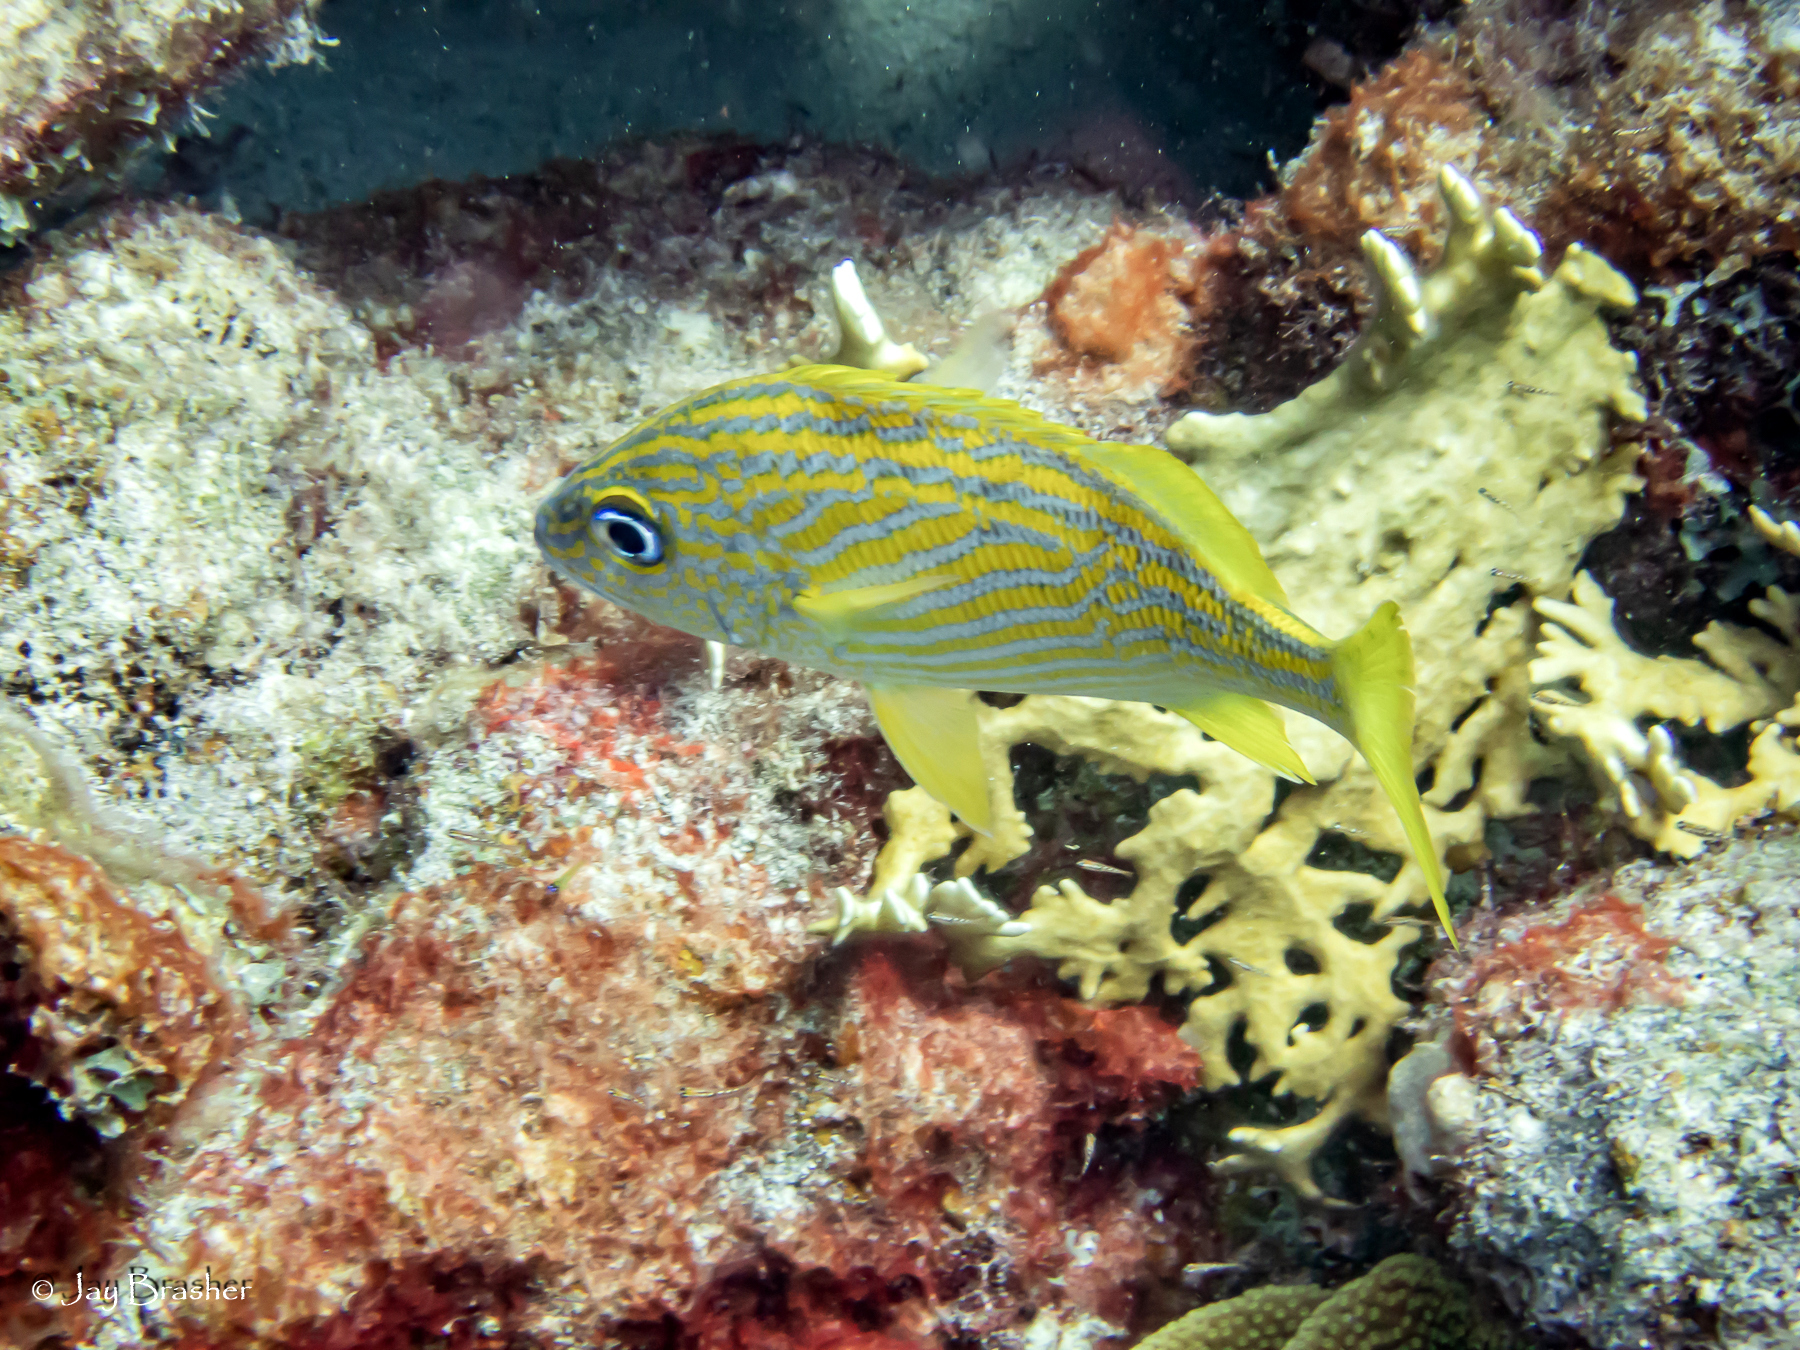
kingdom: Animalia
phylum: Chordata
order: Perciformes
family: Haemulidae
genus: Haemulon
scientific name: Haemulon flavolineatum
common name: French grunt
